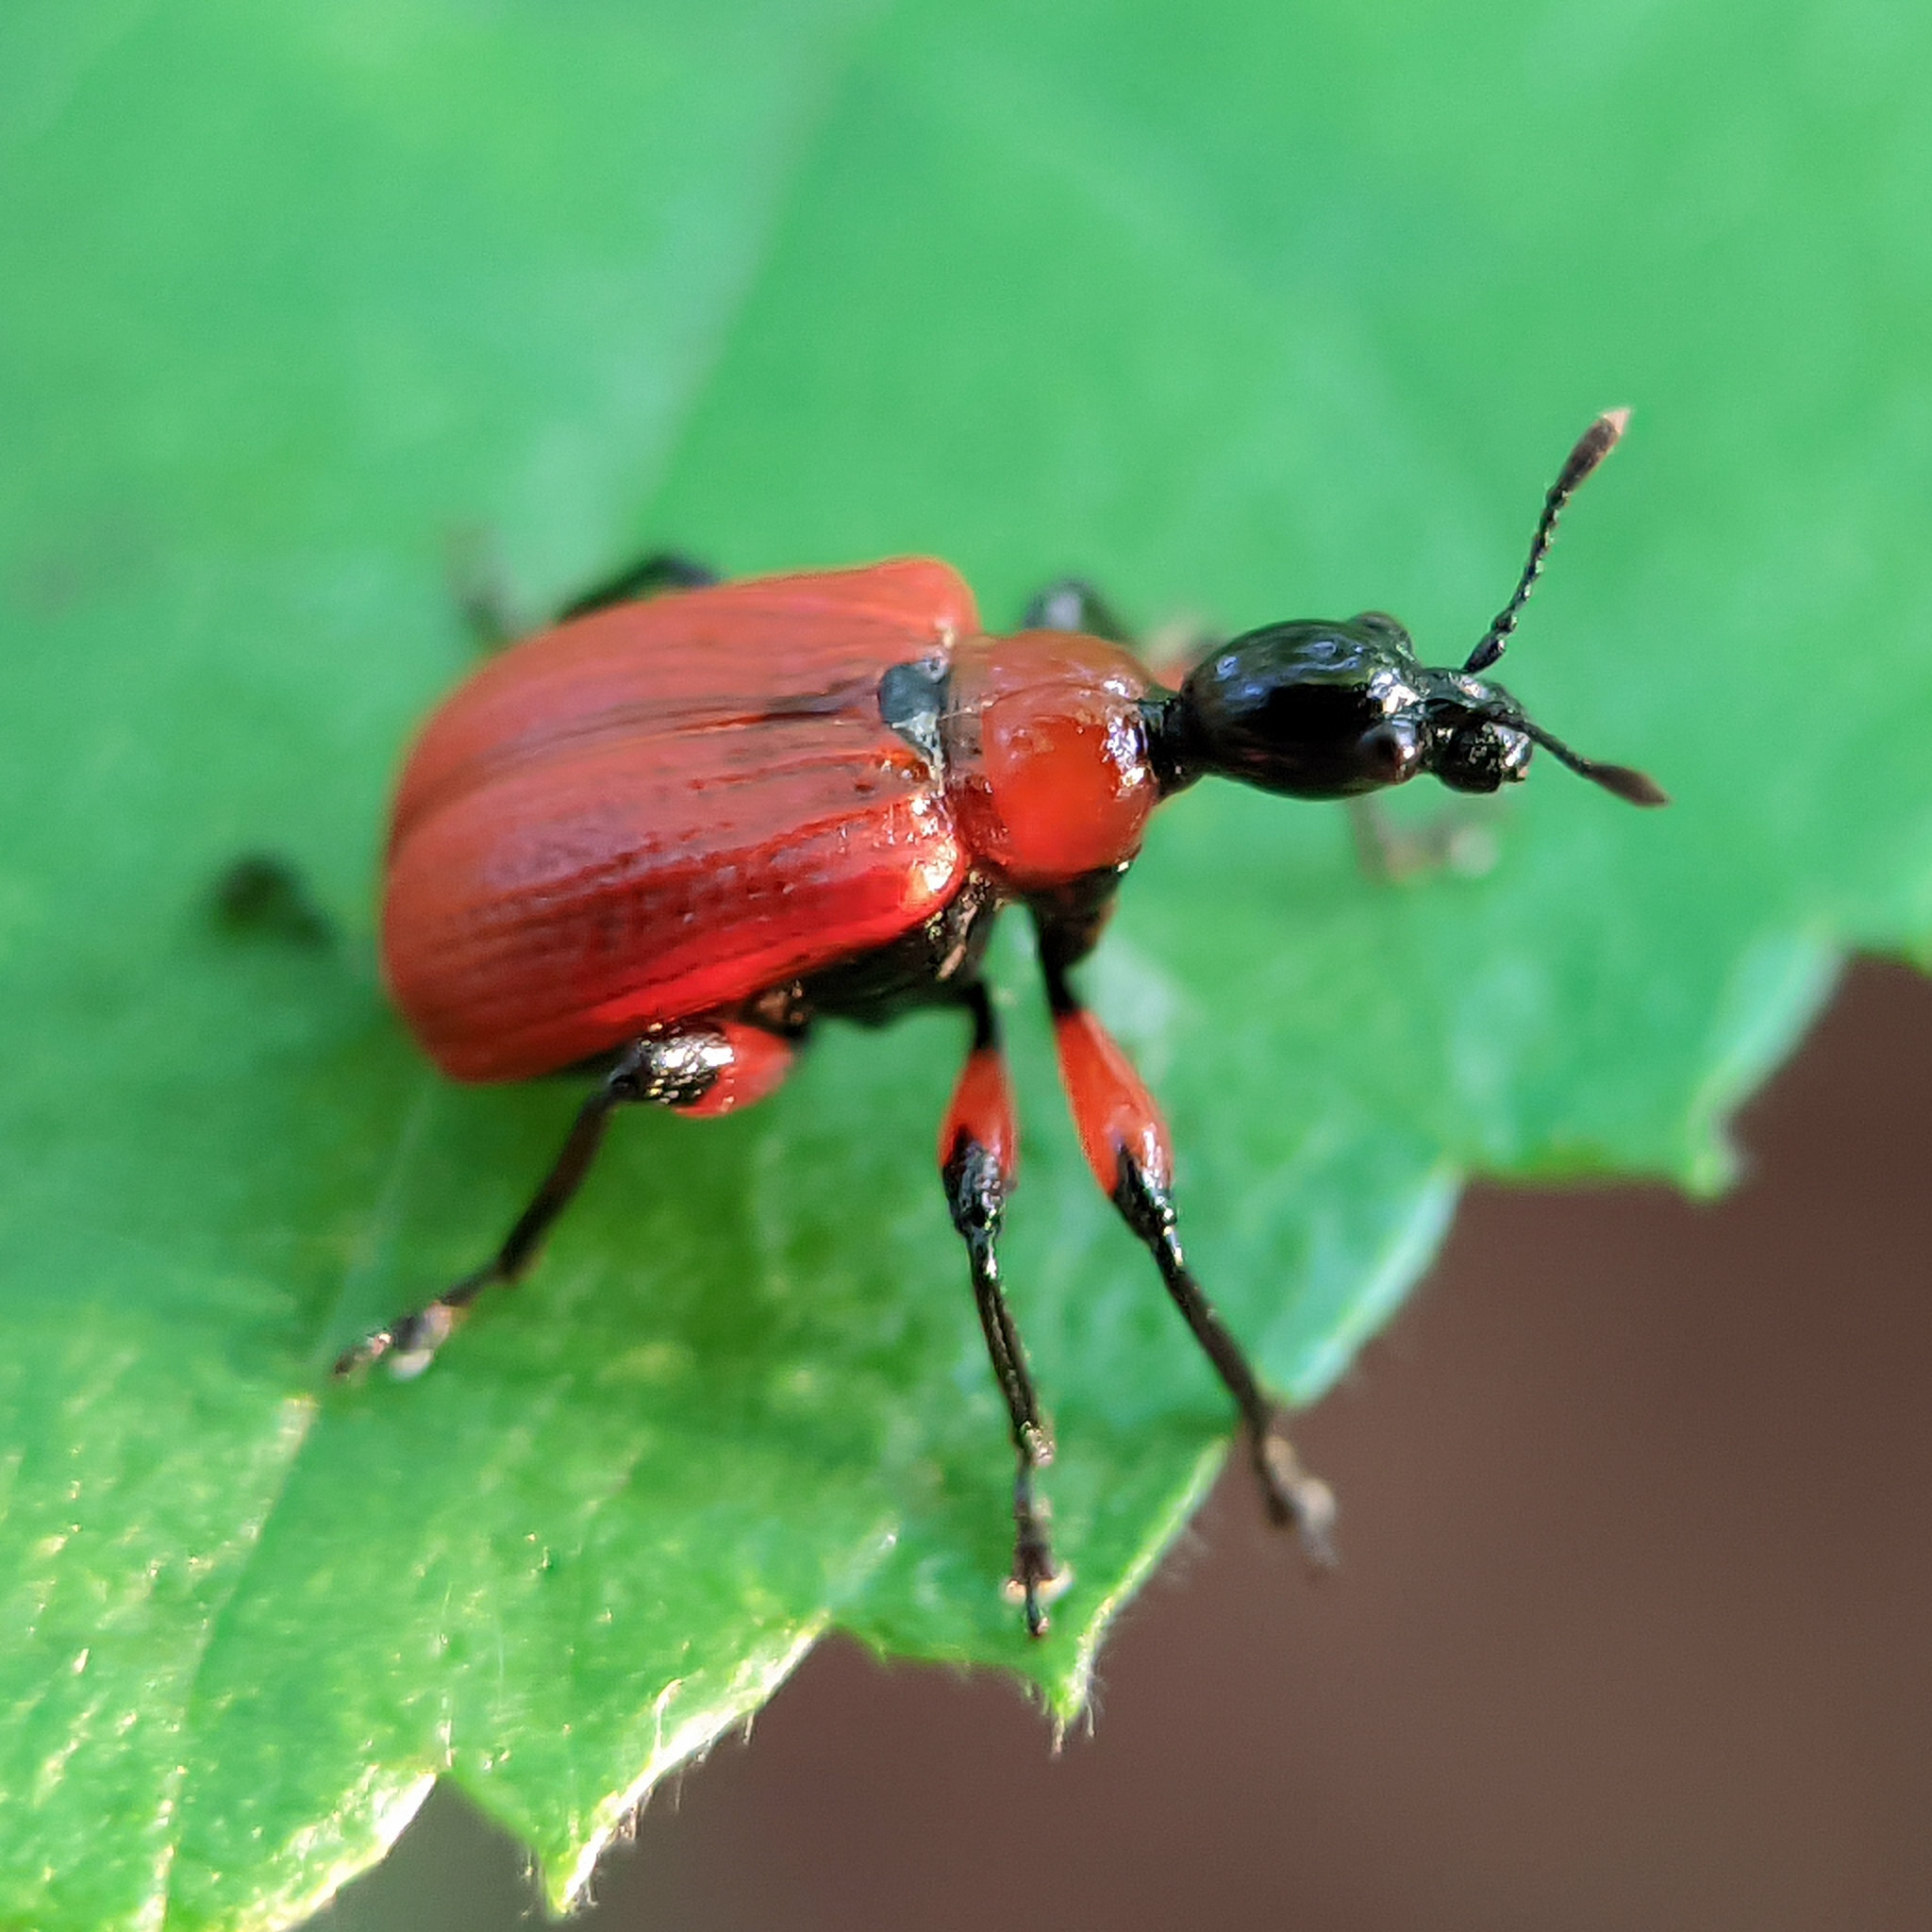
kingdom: Animalia
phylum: Arthropoda
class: Insecta
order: Coleoptera
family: Attelabidae
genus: Apoderus
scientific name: Apoderus coryli
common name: Hazel leaf roller
